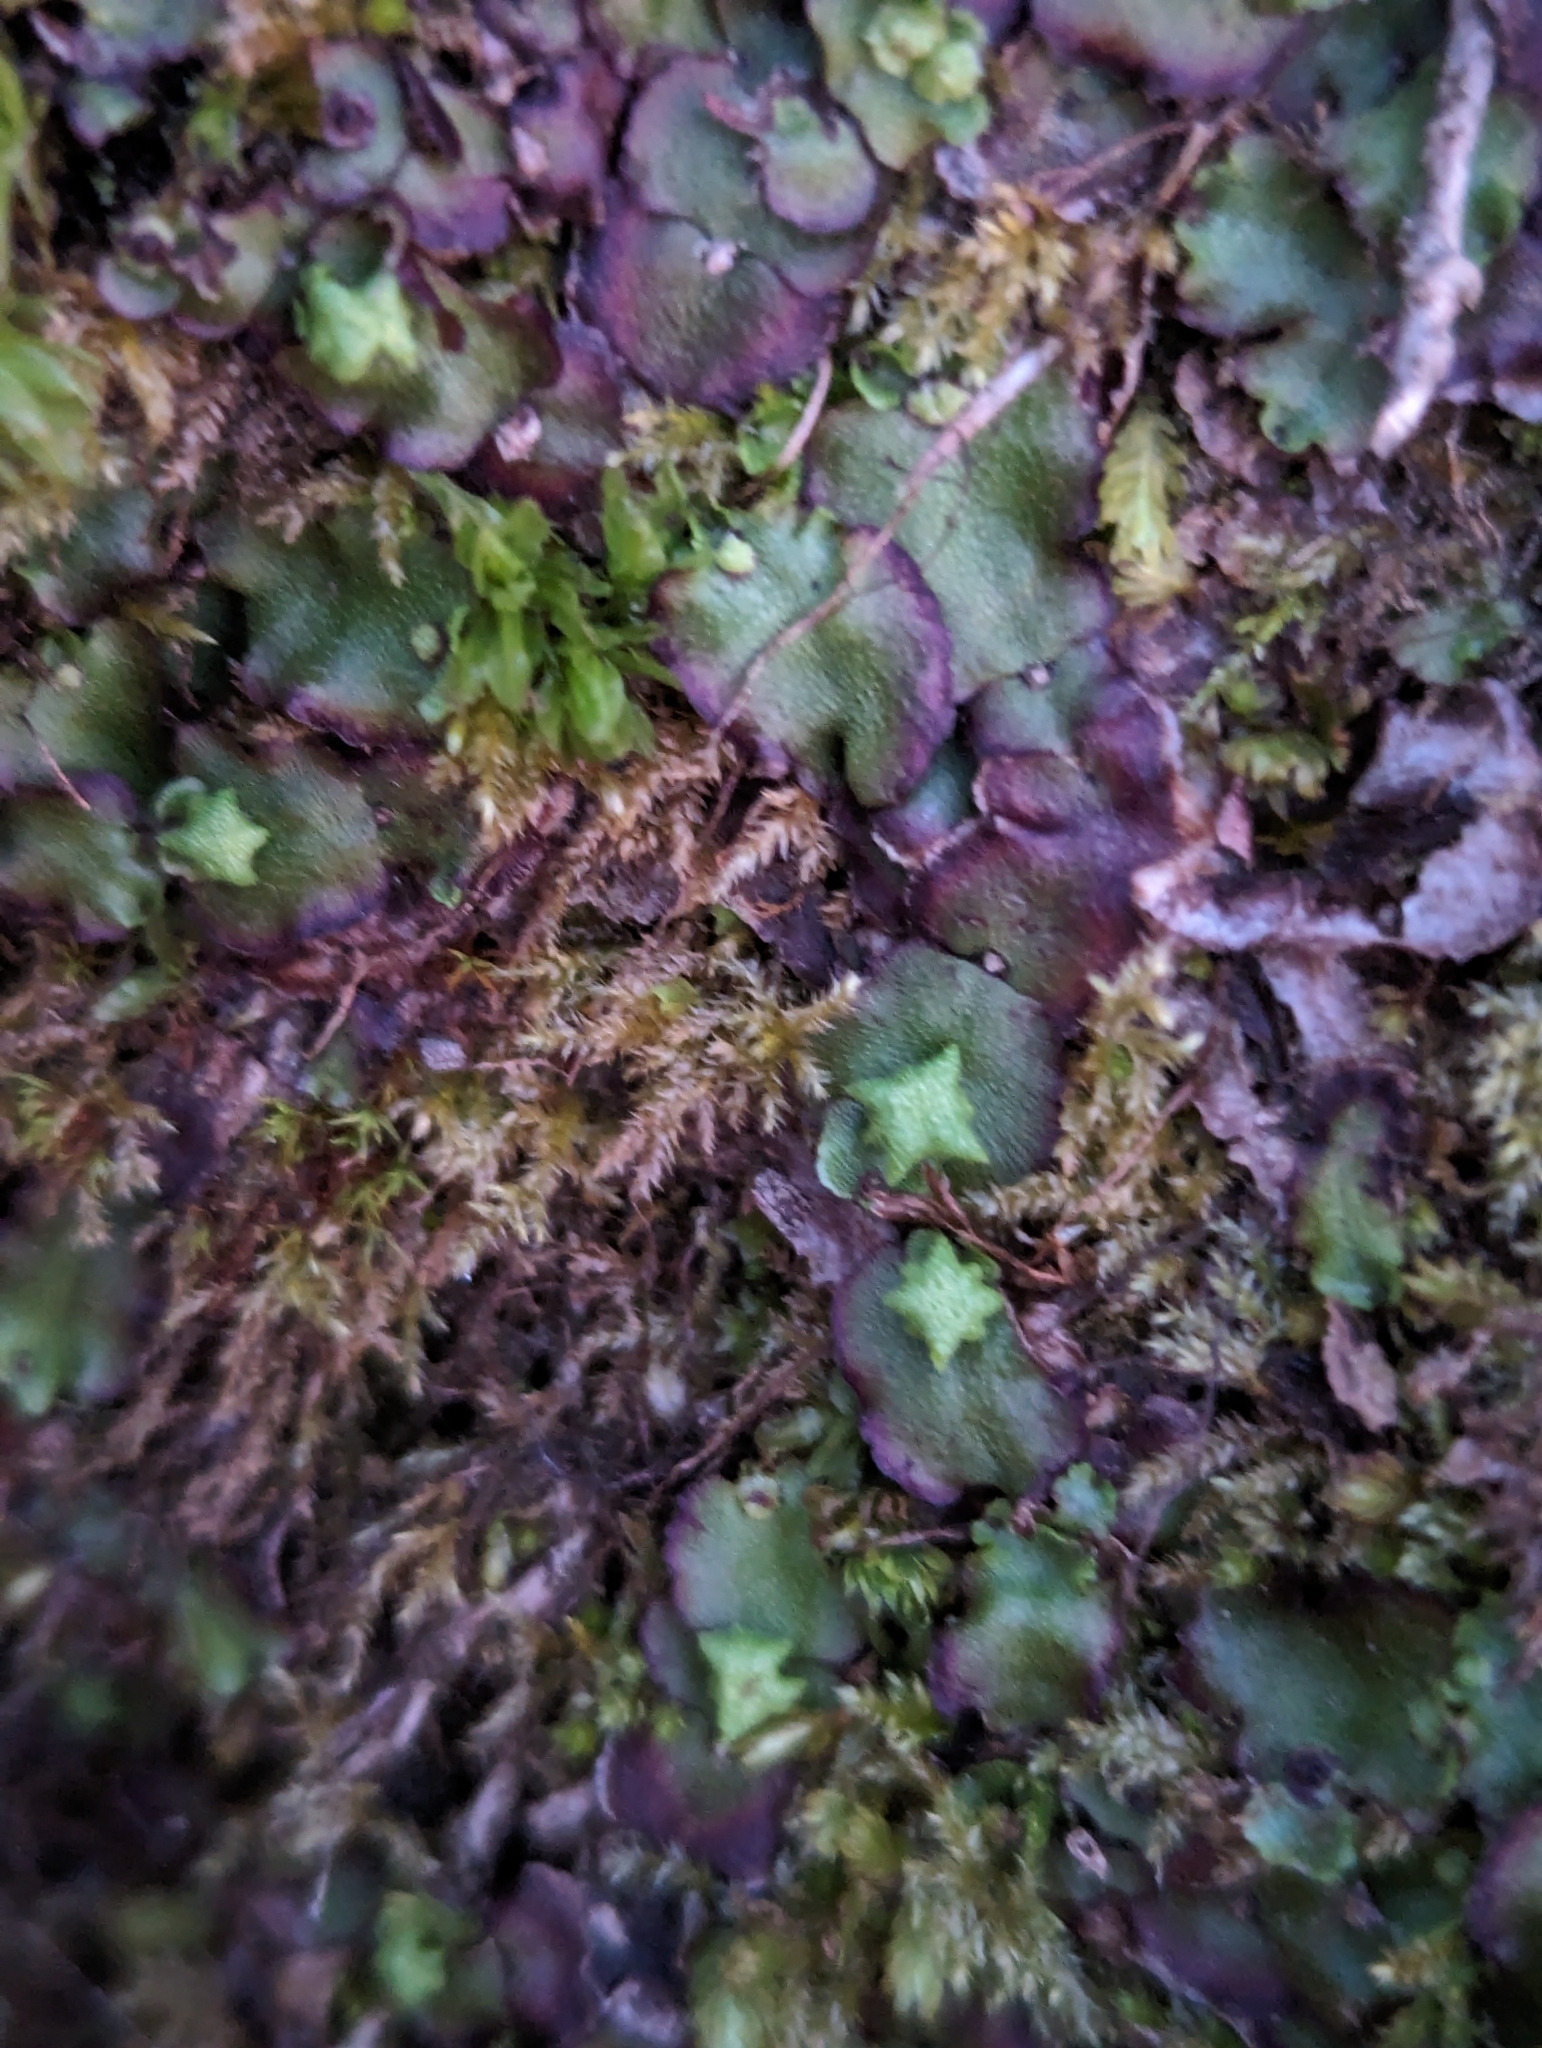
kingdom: Plantae
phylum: Marchantiophyta
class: Marchantiopsida
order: Marchantiales
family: Marchantiaceae
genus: Marchantia
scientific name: Marchantia quadrata
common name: Narrow mushroom-headed liverwort
